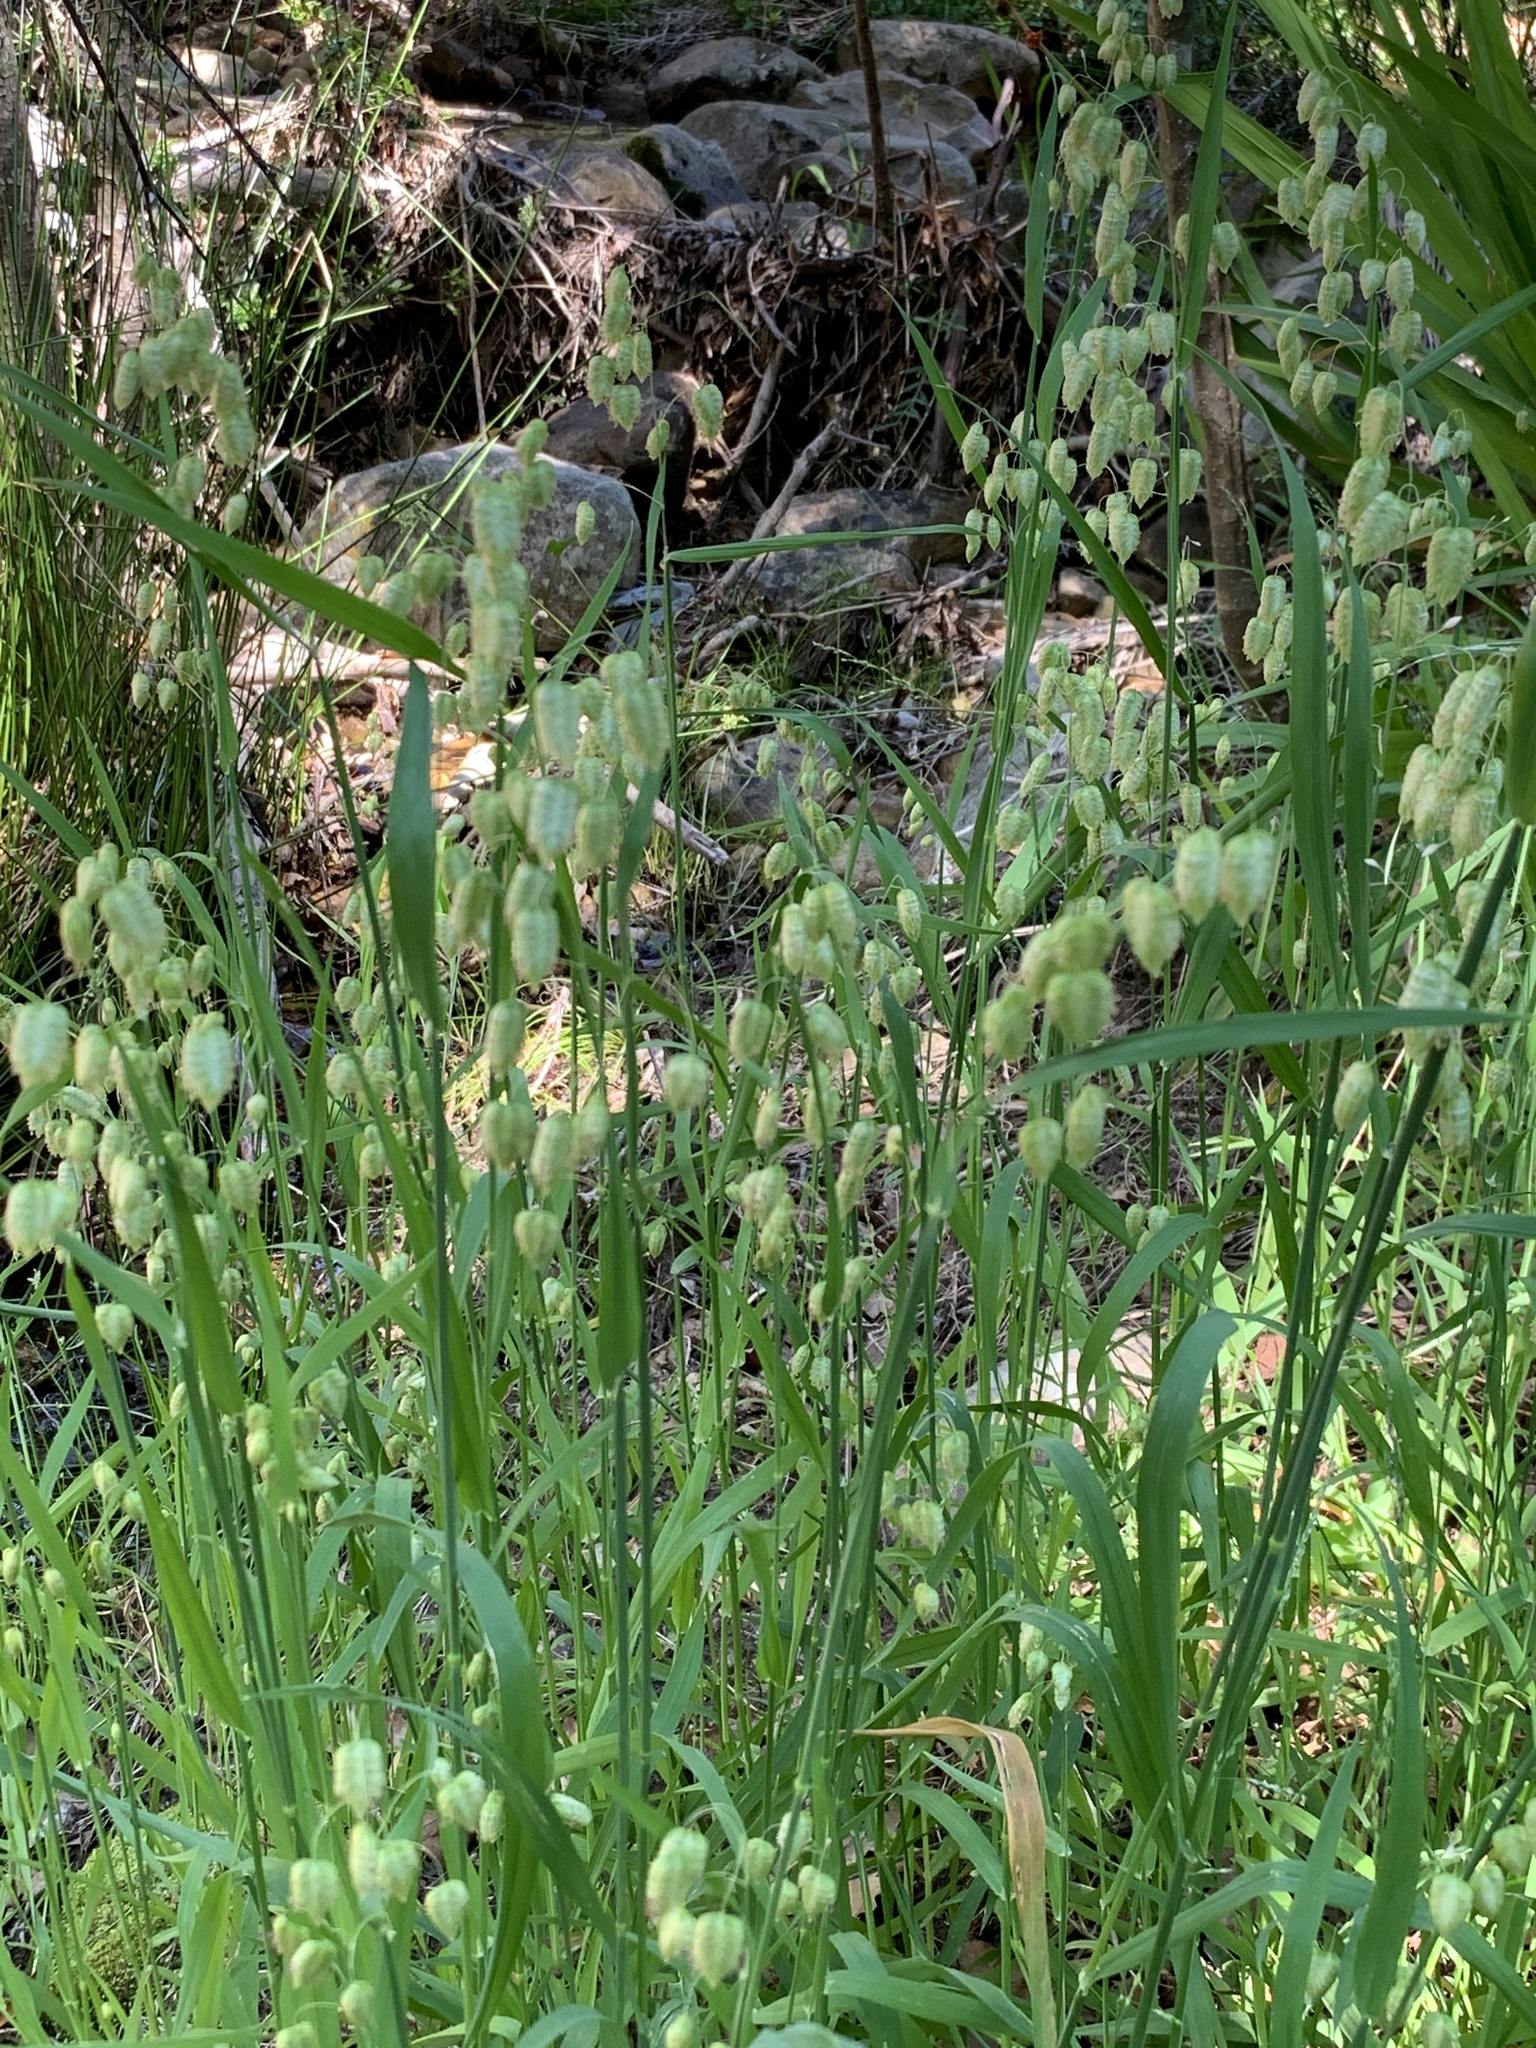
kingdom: Plantae
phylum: Tracheophyta
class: Liliopsida
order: Poales
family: Poaceae
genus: Briza
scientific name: Briza maxima
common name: Big quakinggrass
